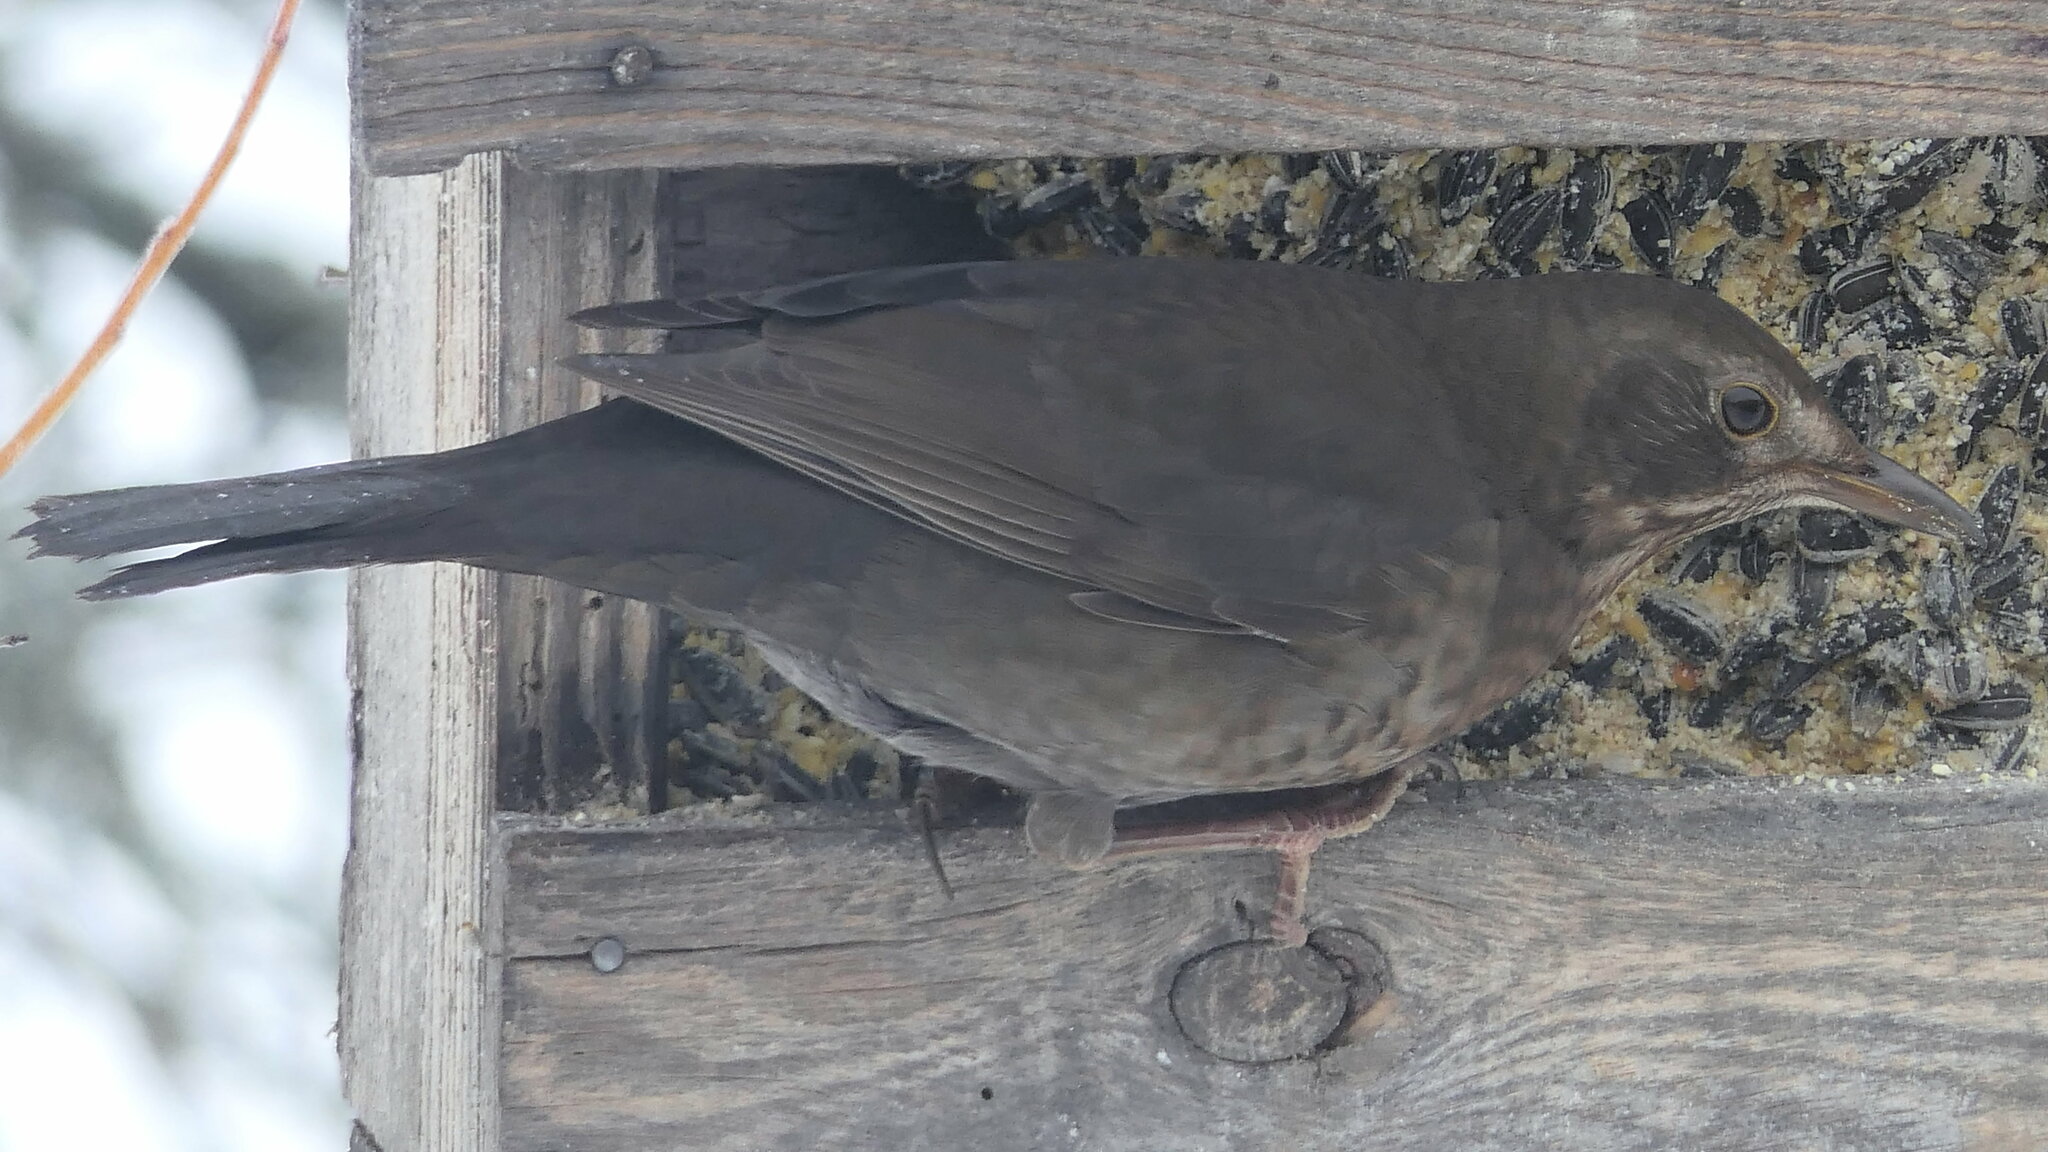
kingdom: Animalia
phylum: Chordata
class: Aves
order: Passeriformes
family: Turdidae
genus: Turdus
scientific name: Turdus merula
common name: Common blackbird
